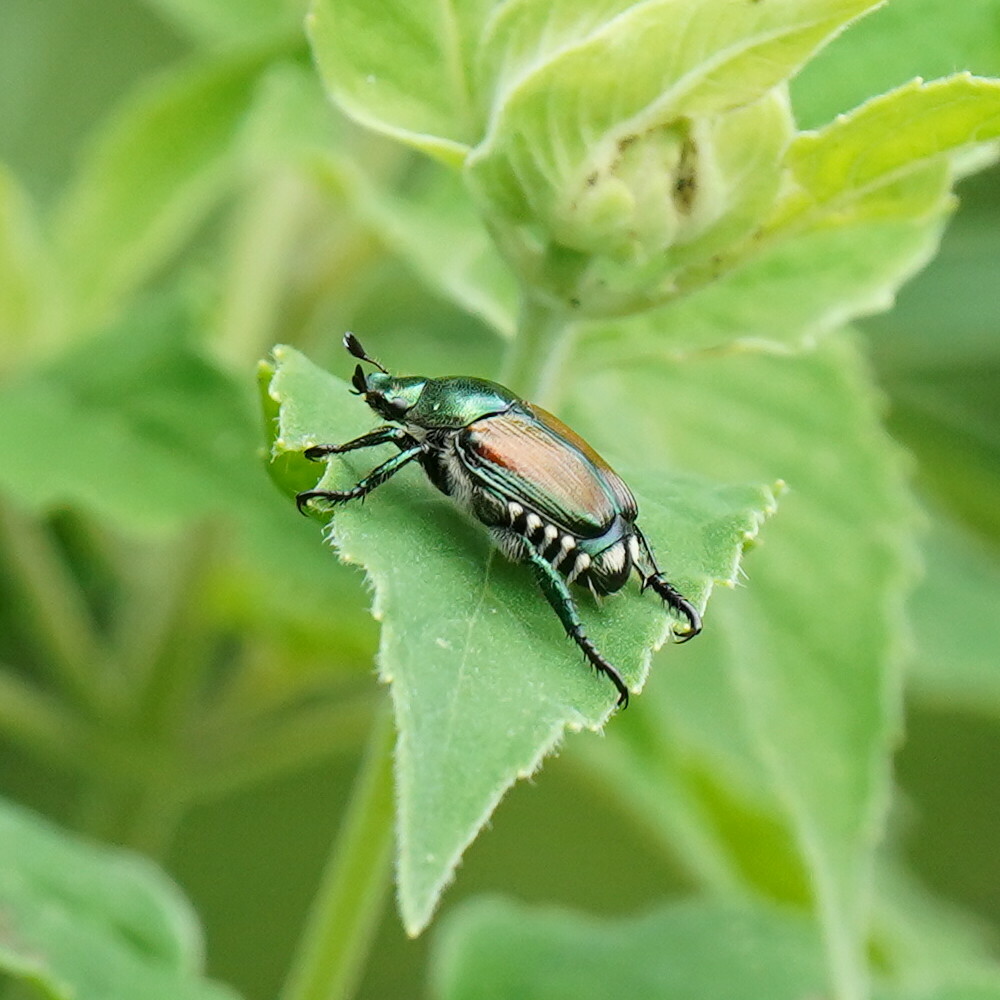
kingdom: Animalia
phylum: Arthropoda
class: Insecta
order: Coleoptera
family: Scarabaeidae
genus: Popillia
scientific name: Popillia japonica
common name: Japanese beetle
